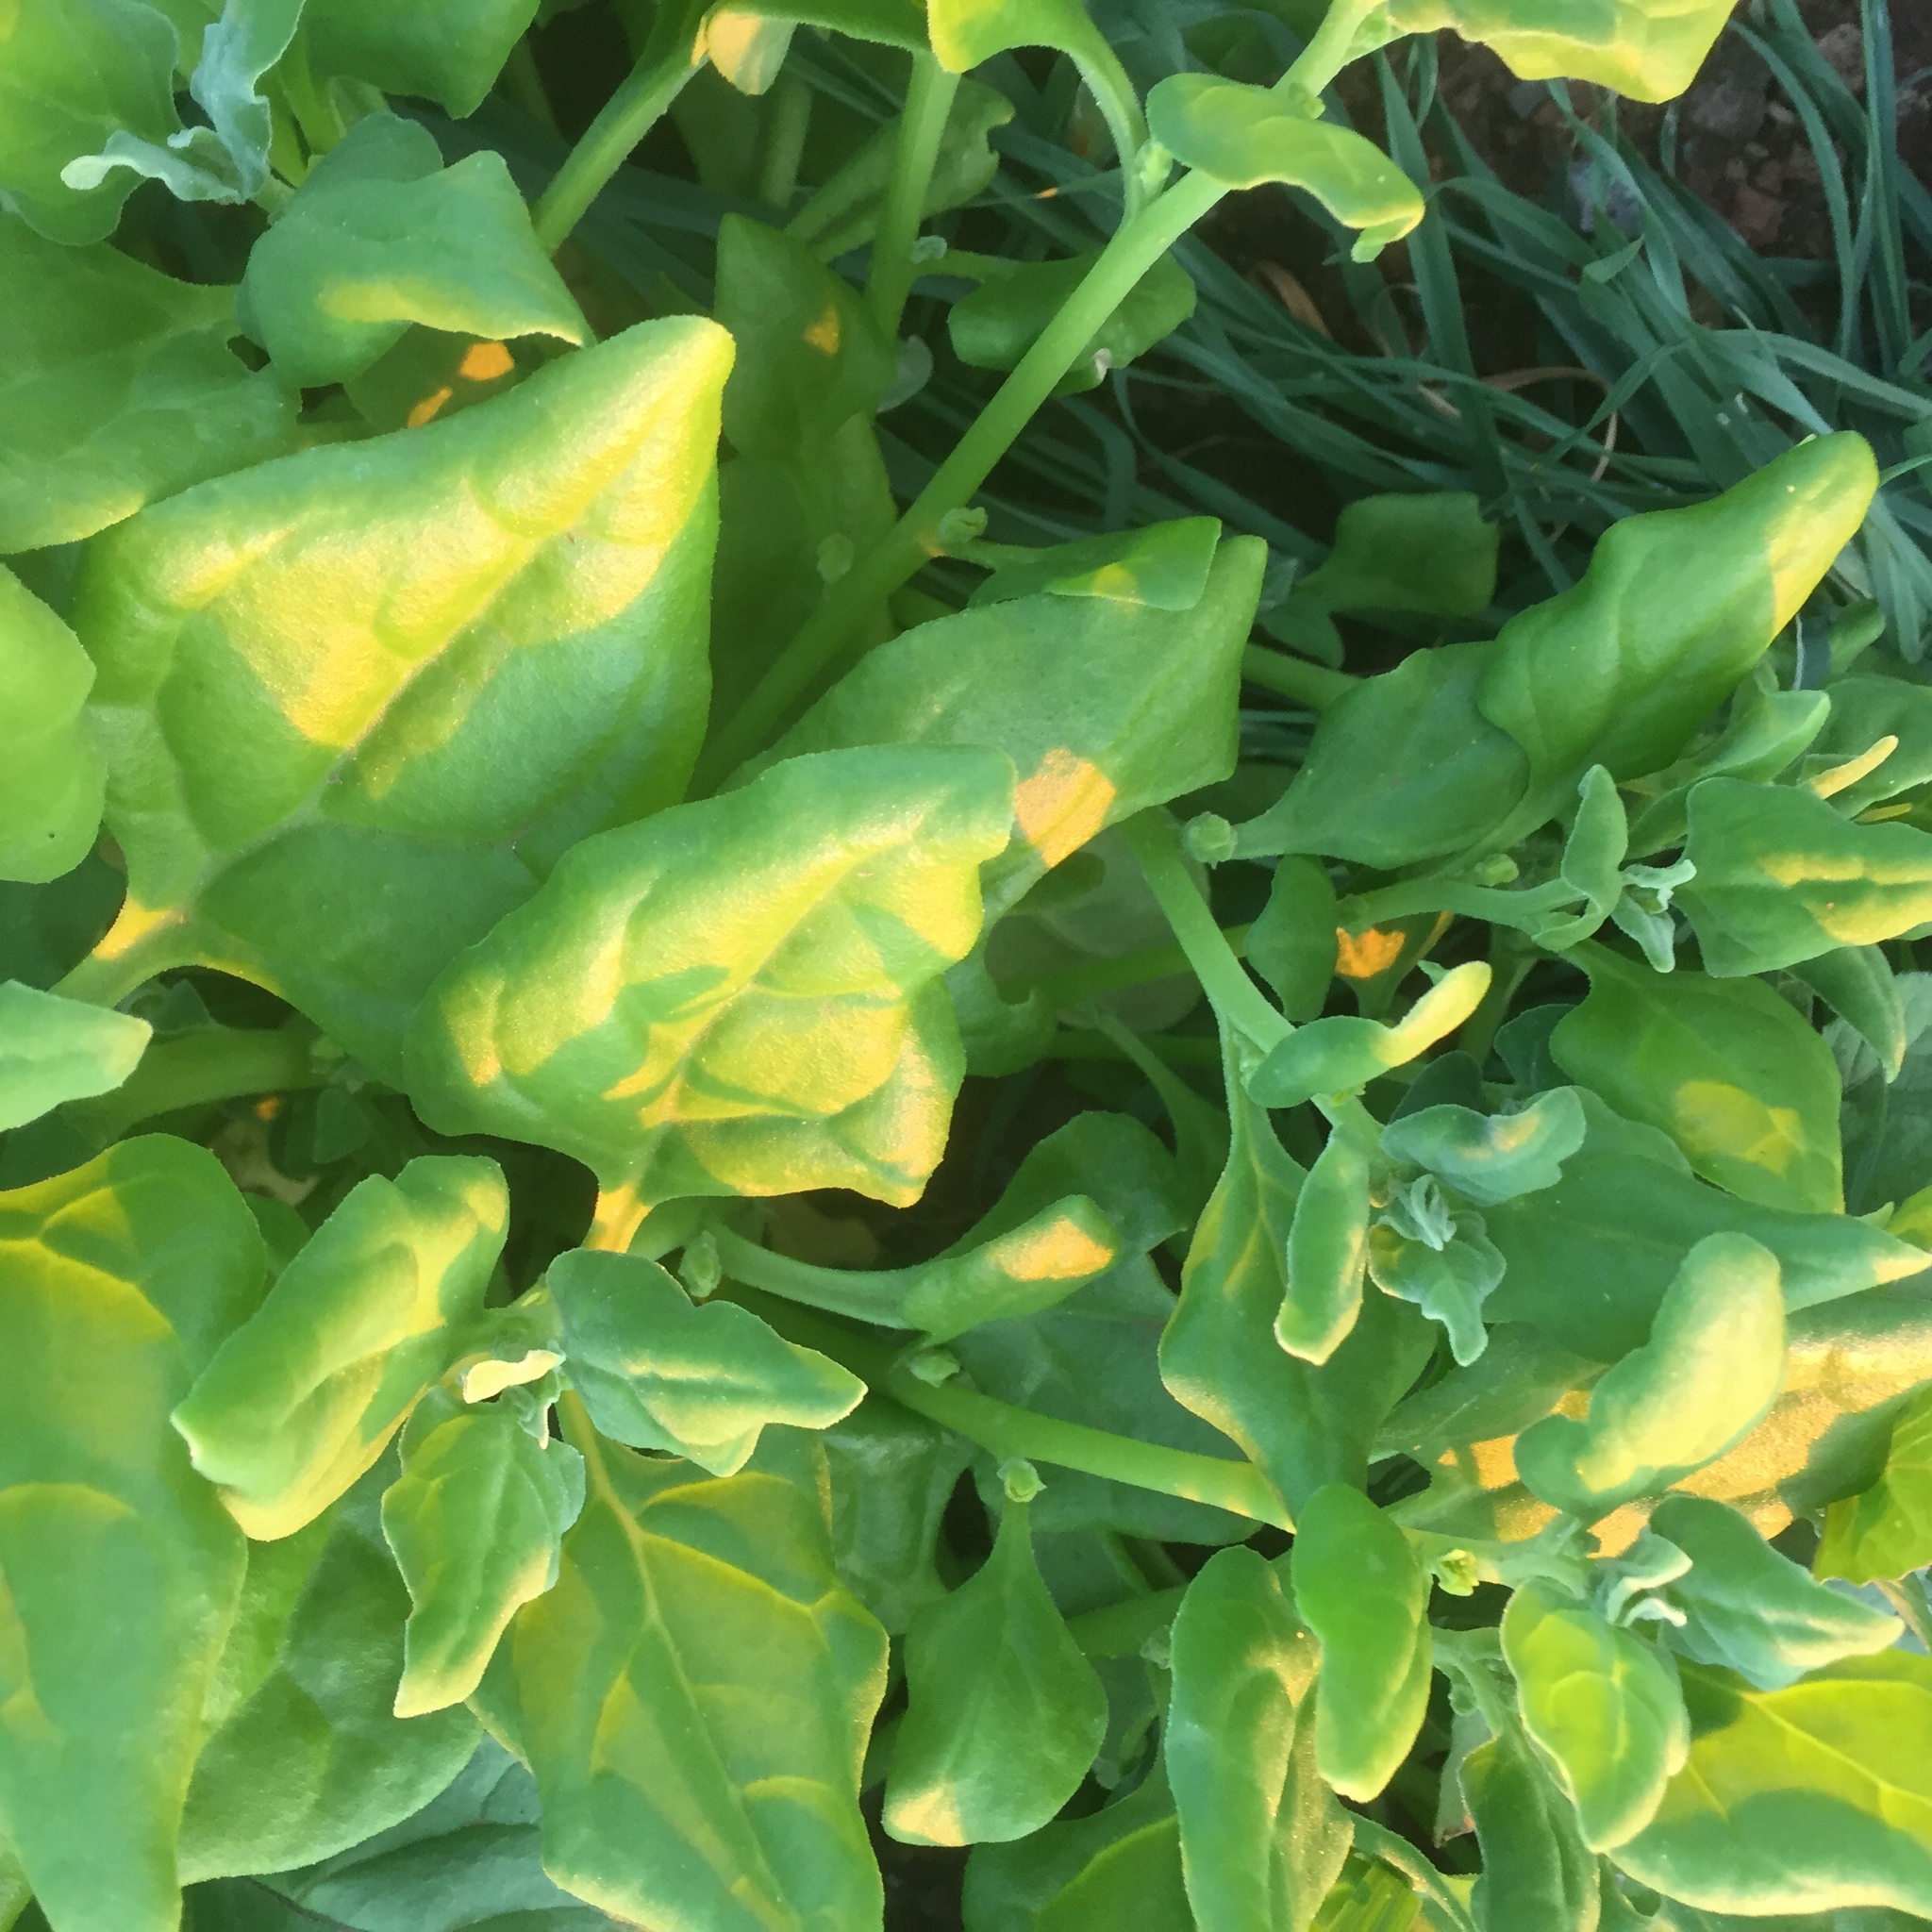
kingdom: Plantae
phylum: Tracheophyta
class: Magnoliopsida
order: Caryophyllales
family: Aizoaceae
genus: Tetragonia
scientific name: Tetragonia tetragonoides
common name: New zealand-spinach
